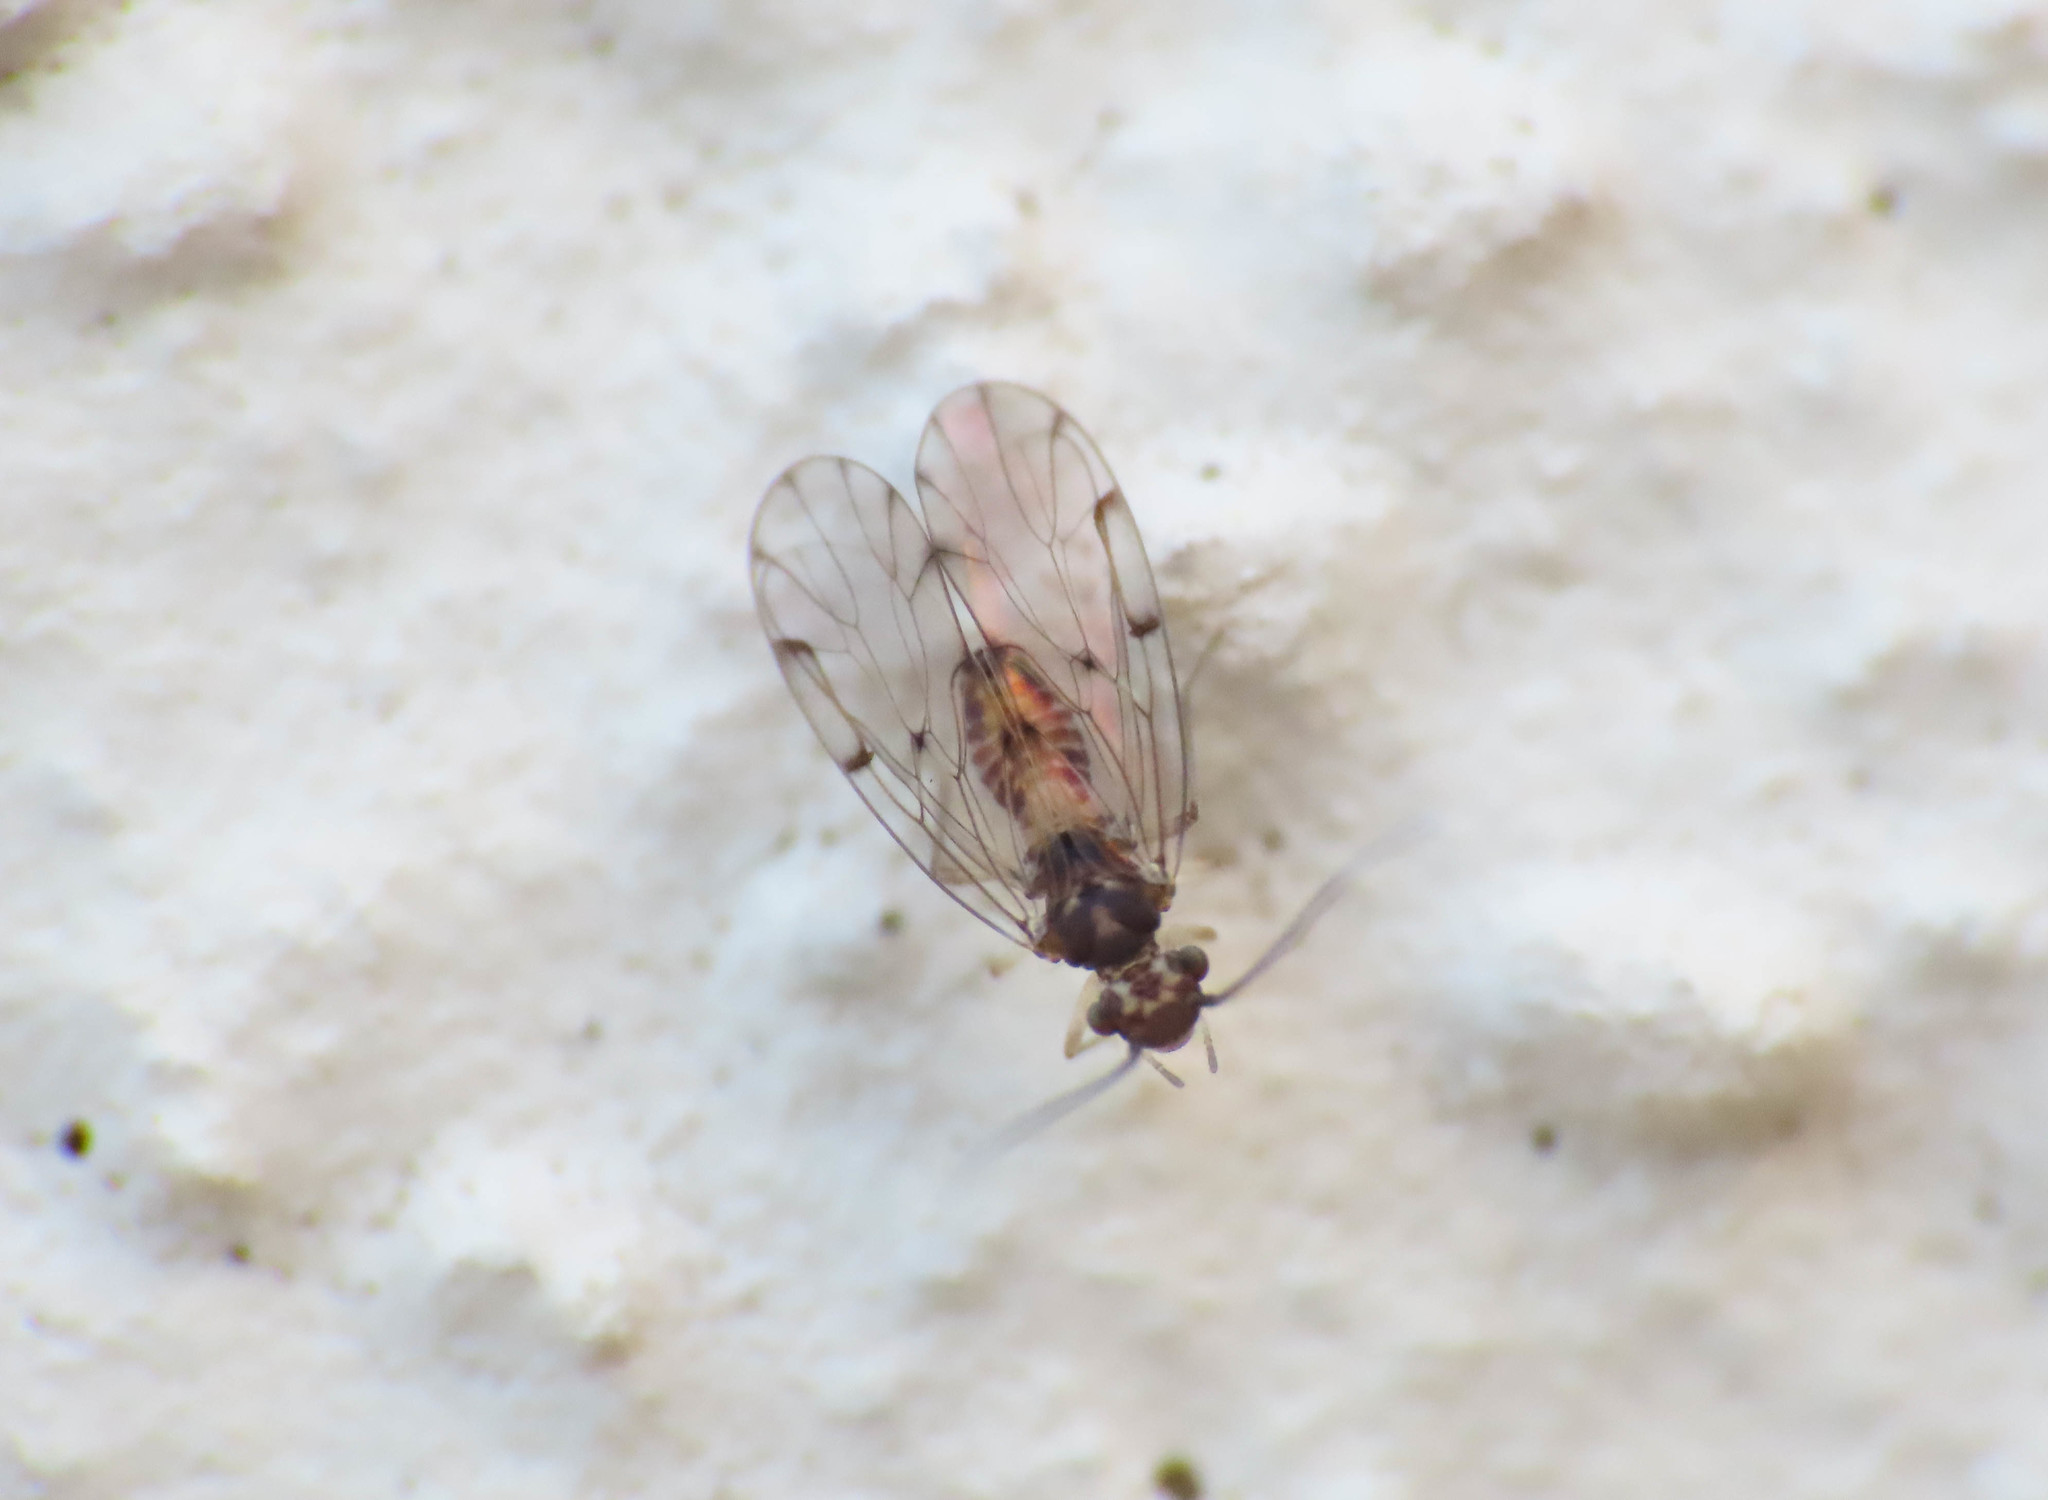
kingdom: Animalia
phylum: Arthropoda
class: Insecta
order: Psocodea
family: Ectopsocidae
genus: Ectopsocus
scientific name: Ectopsocus petersi
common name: Medium-sized bark louse
